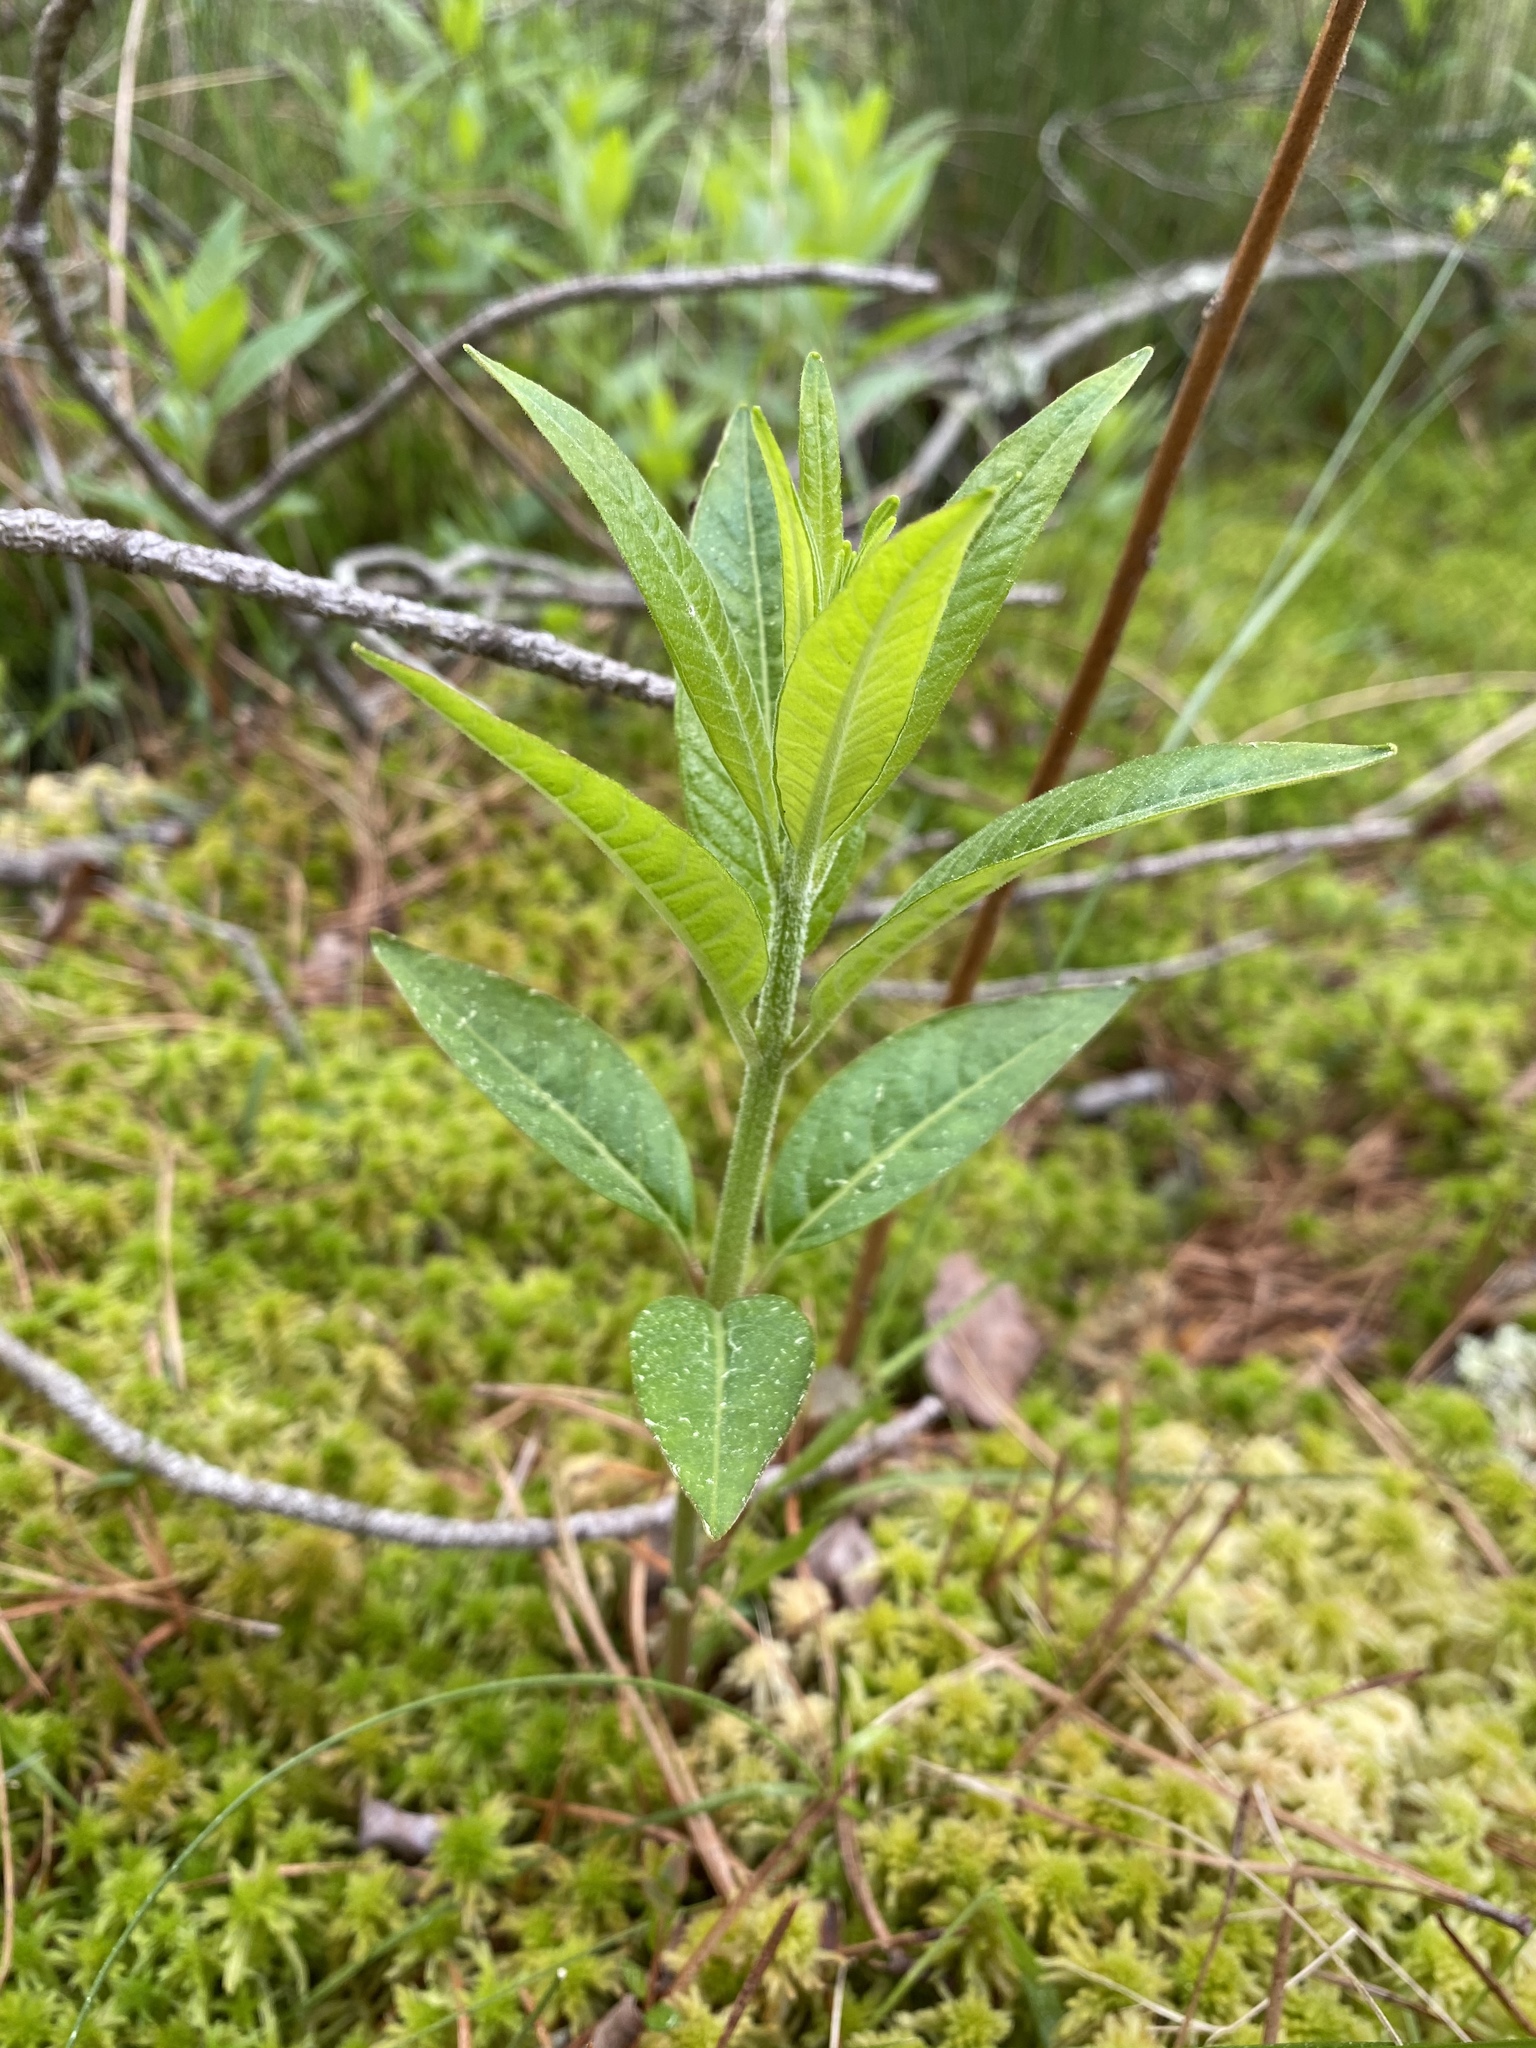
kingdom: Plantae
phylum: Tracheophyta
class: Magnoliopsida
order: Myrtales
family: Lythraceae
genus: Decodon
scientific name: Decodon verticillatus
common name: Hairy swamp loosestrife
